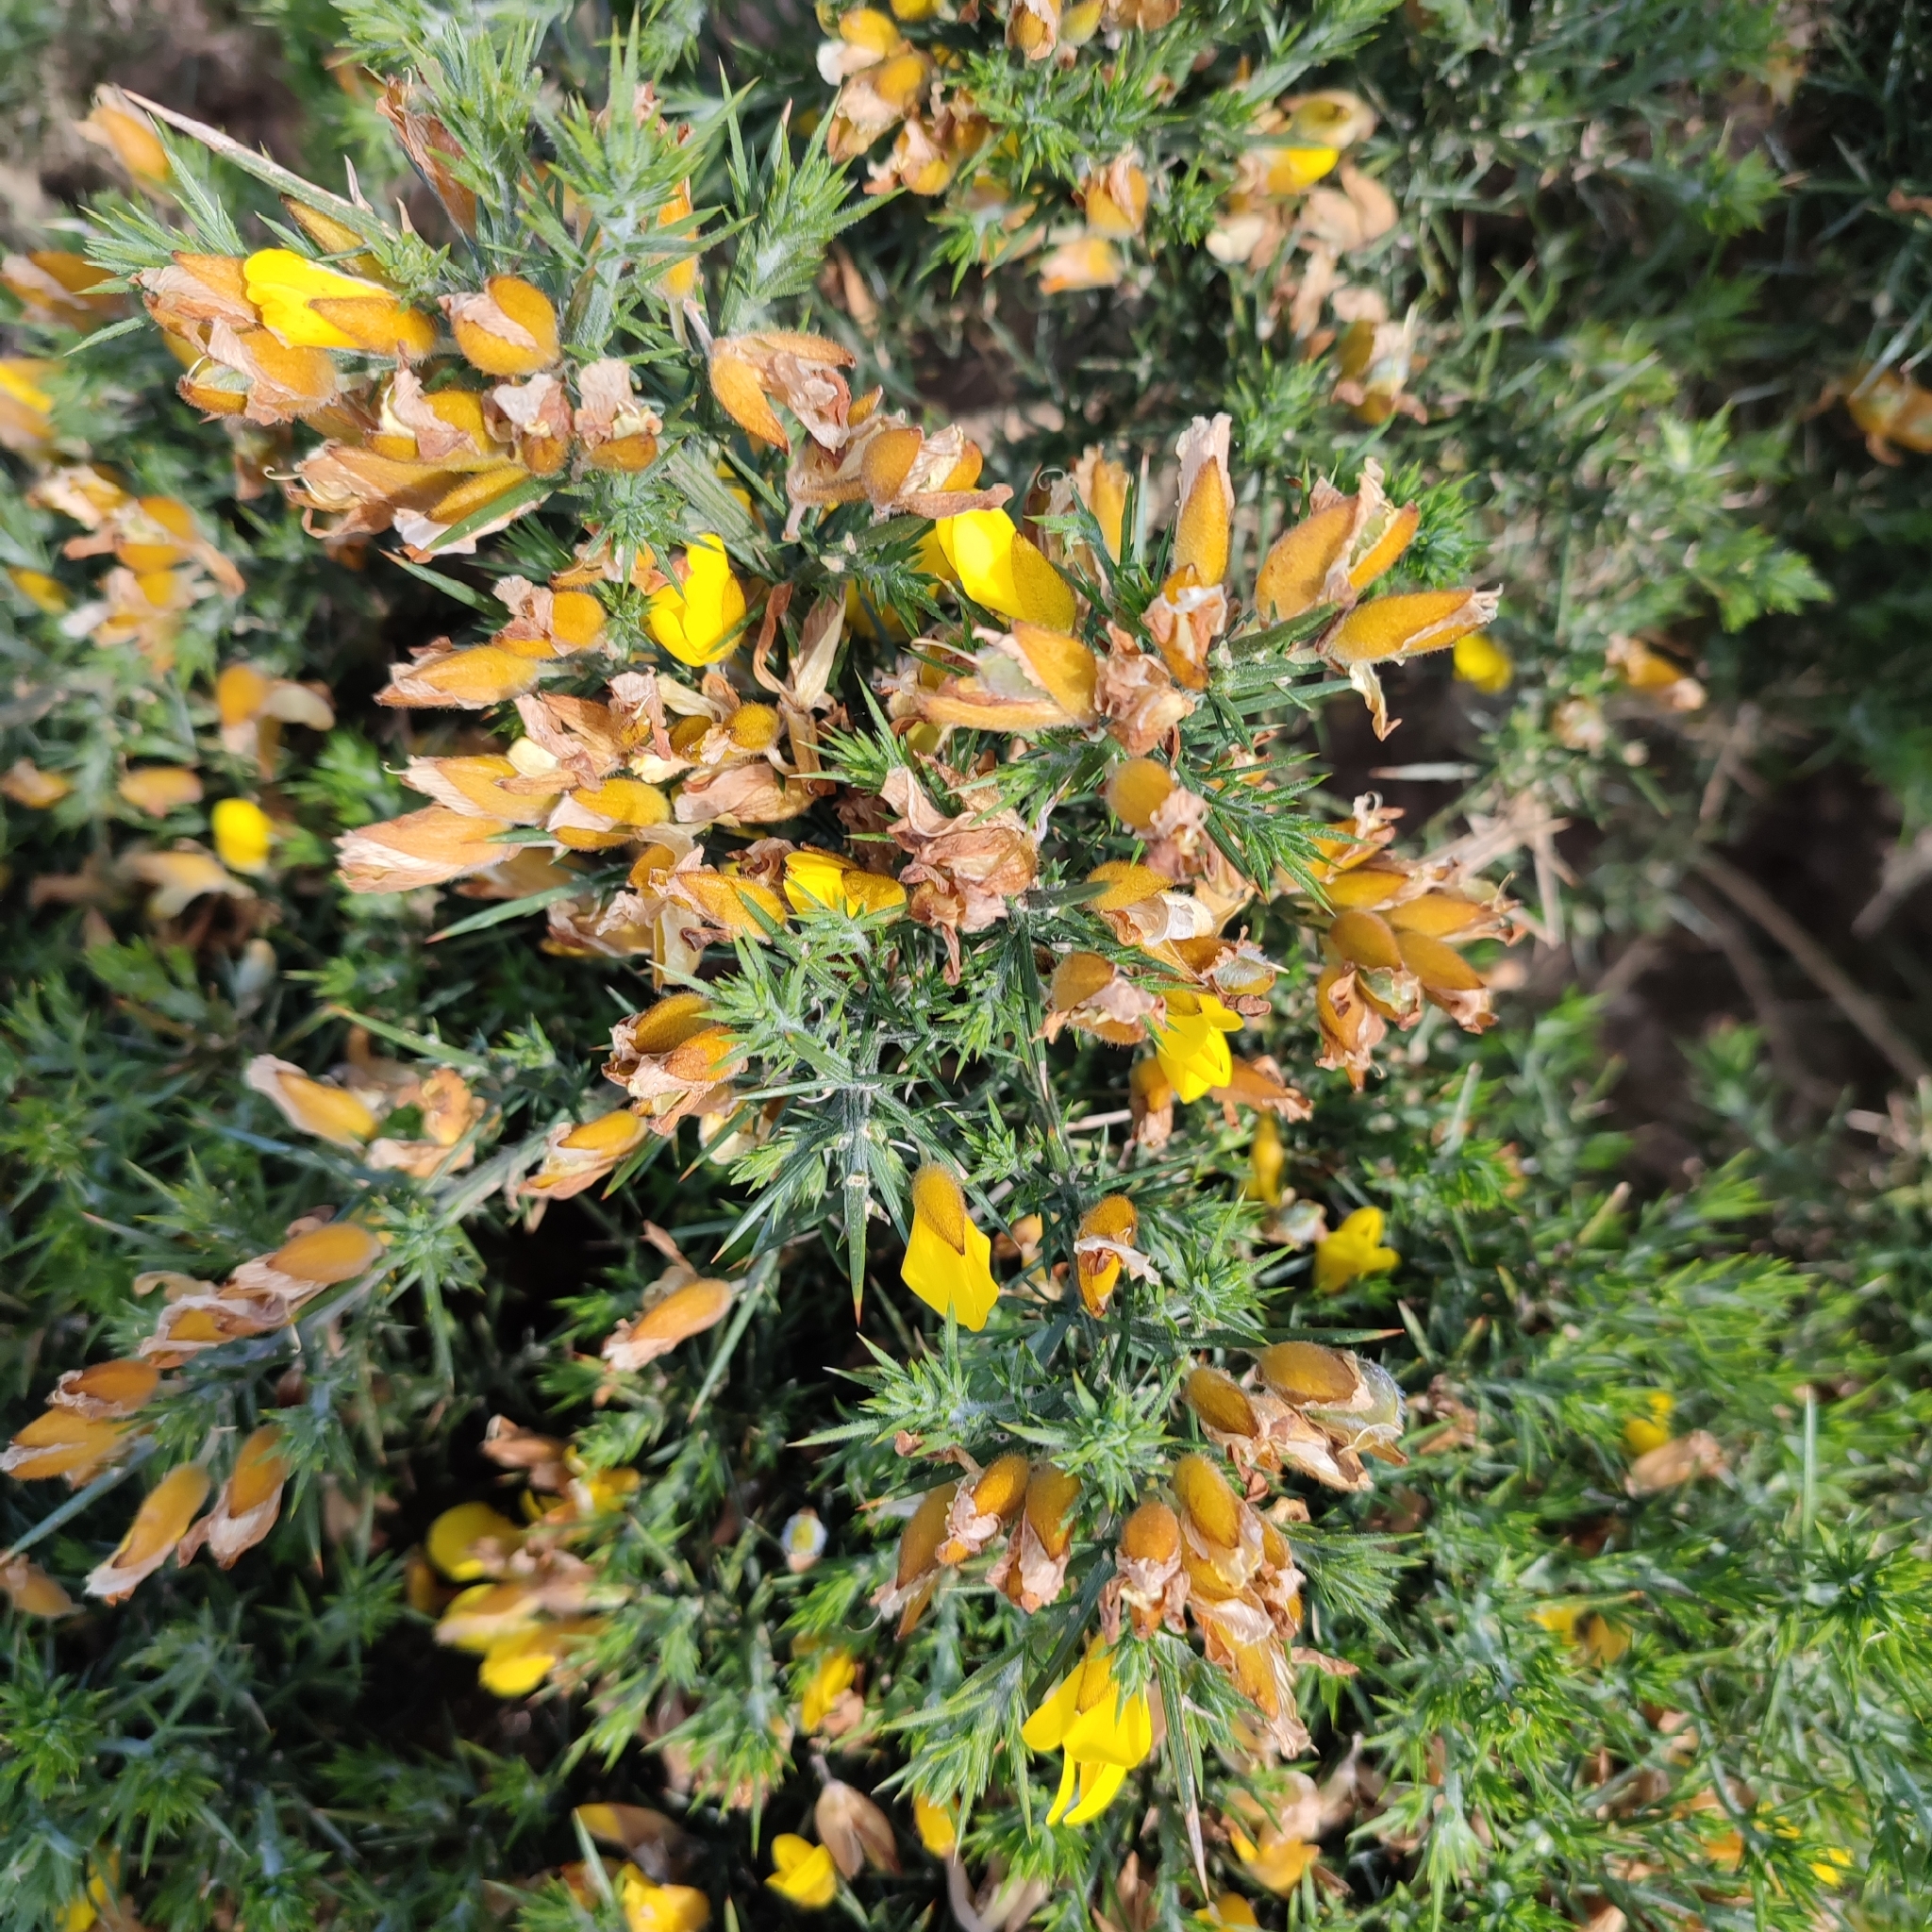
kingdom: Plantae
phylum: Tracheophyta
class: Magnoliopsida
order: Fabales
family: Fabaceae
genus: Ulex
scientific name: Ulex europaeus
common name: Common gorse
